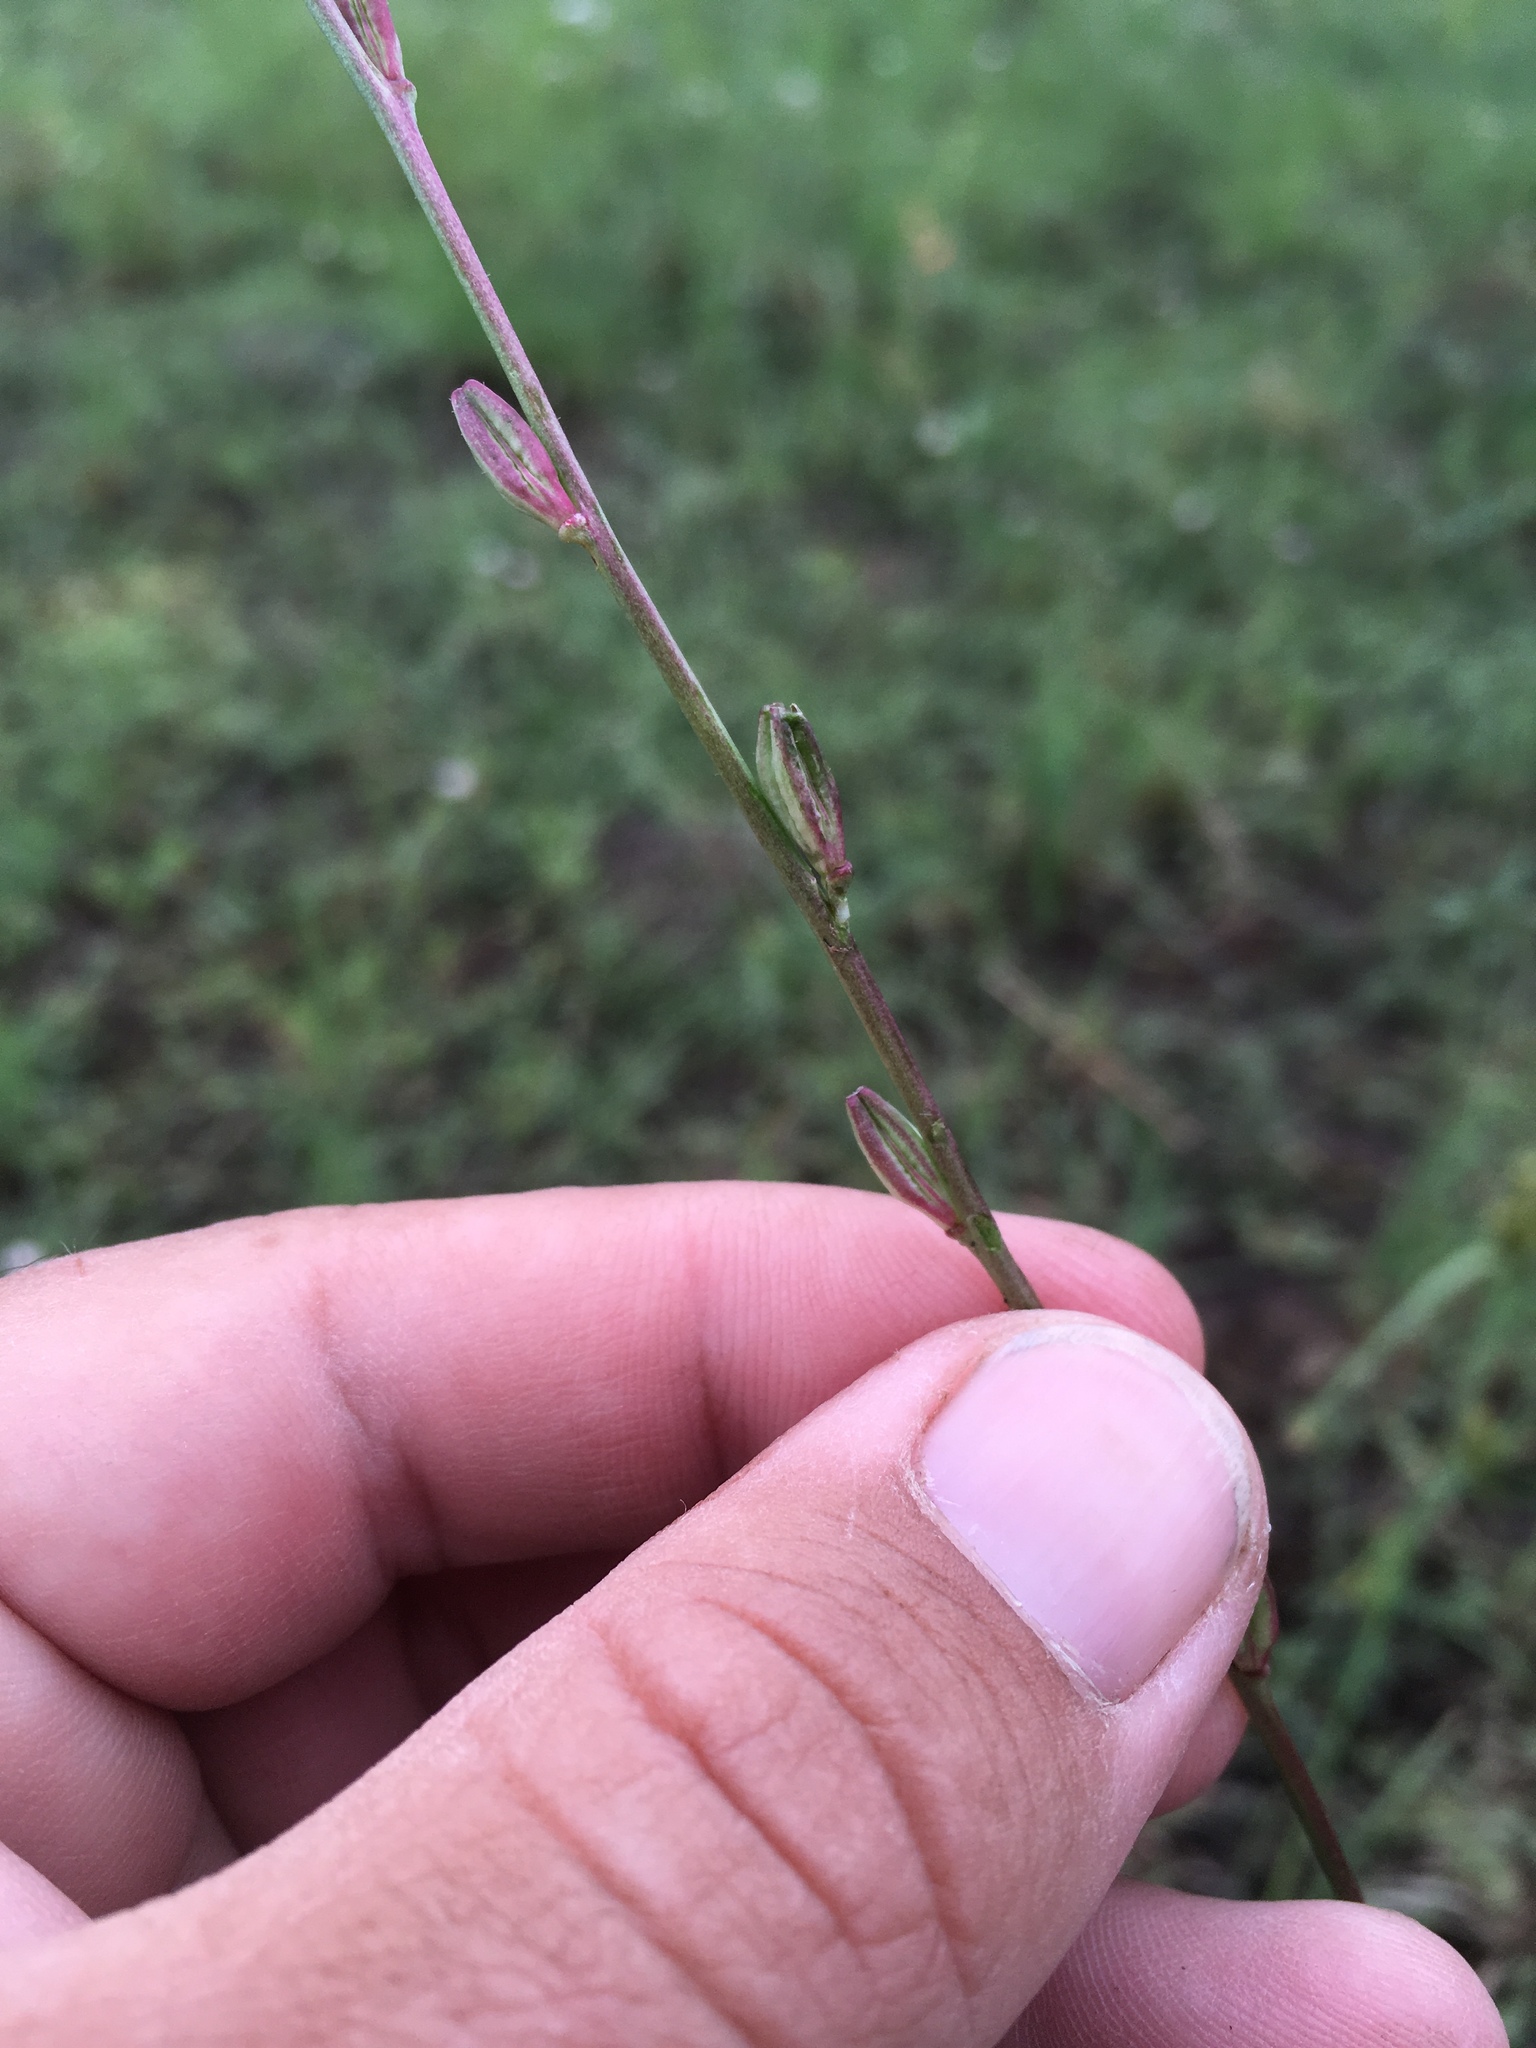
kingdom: Plantae
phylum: Tracheophyta
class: Magnoliopsida
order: Myrtales
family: Onagraceae
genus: Oenothera
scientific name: Oenothera podocarpa
